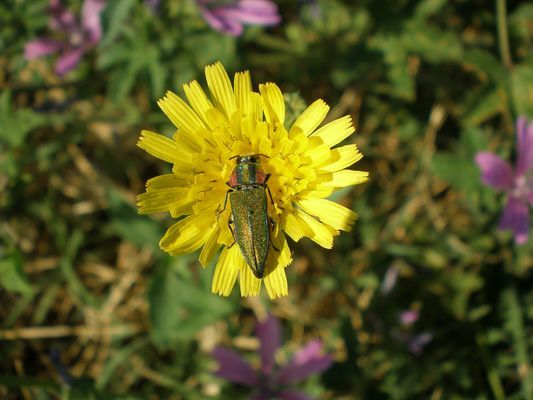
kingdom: Animalia
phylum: Arthropoda
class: Insecta
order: Coleoptera
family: Buprestidae
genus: Anthaxia
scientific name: Anthaxia hungarica
